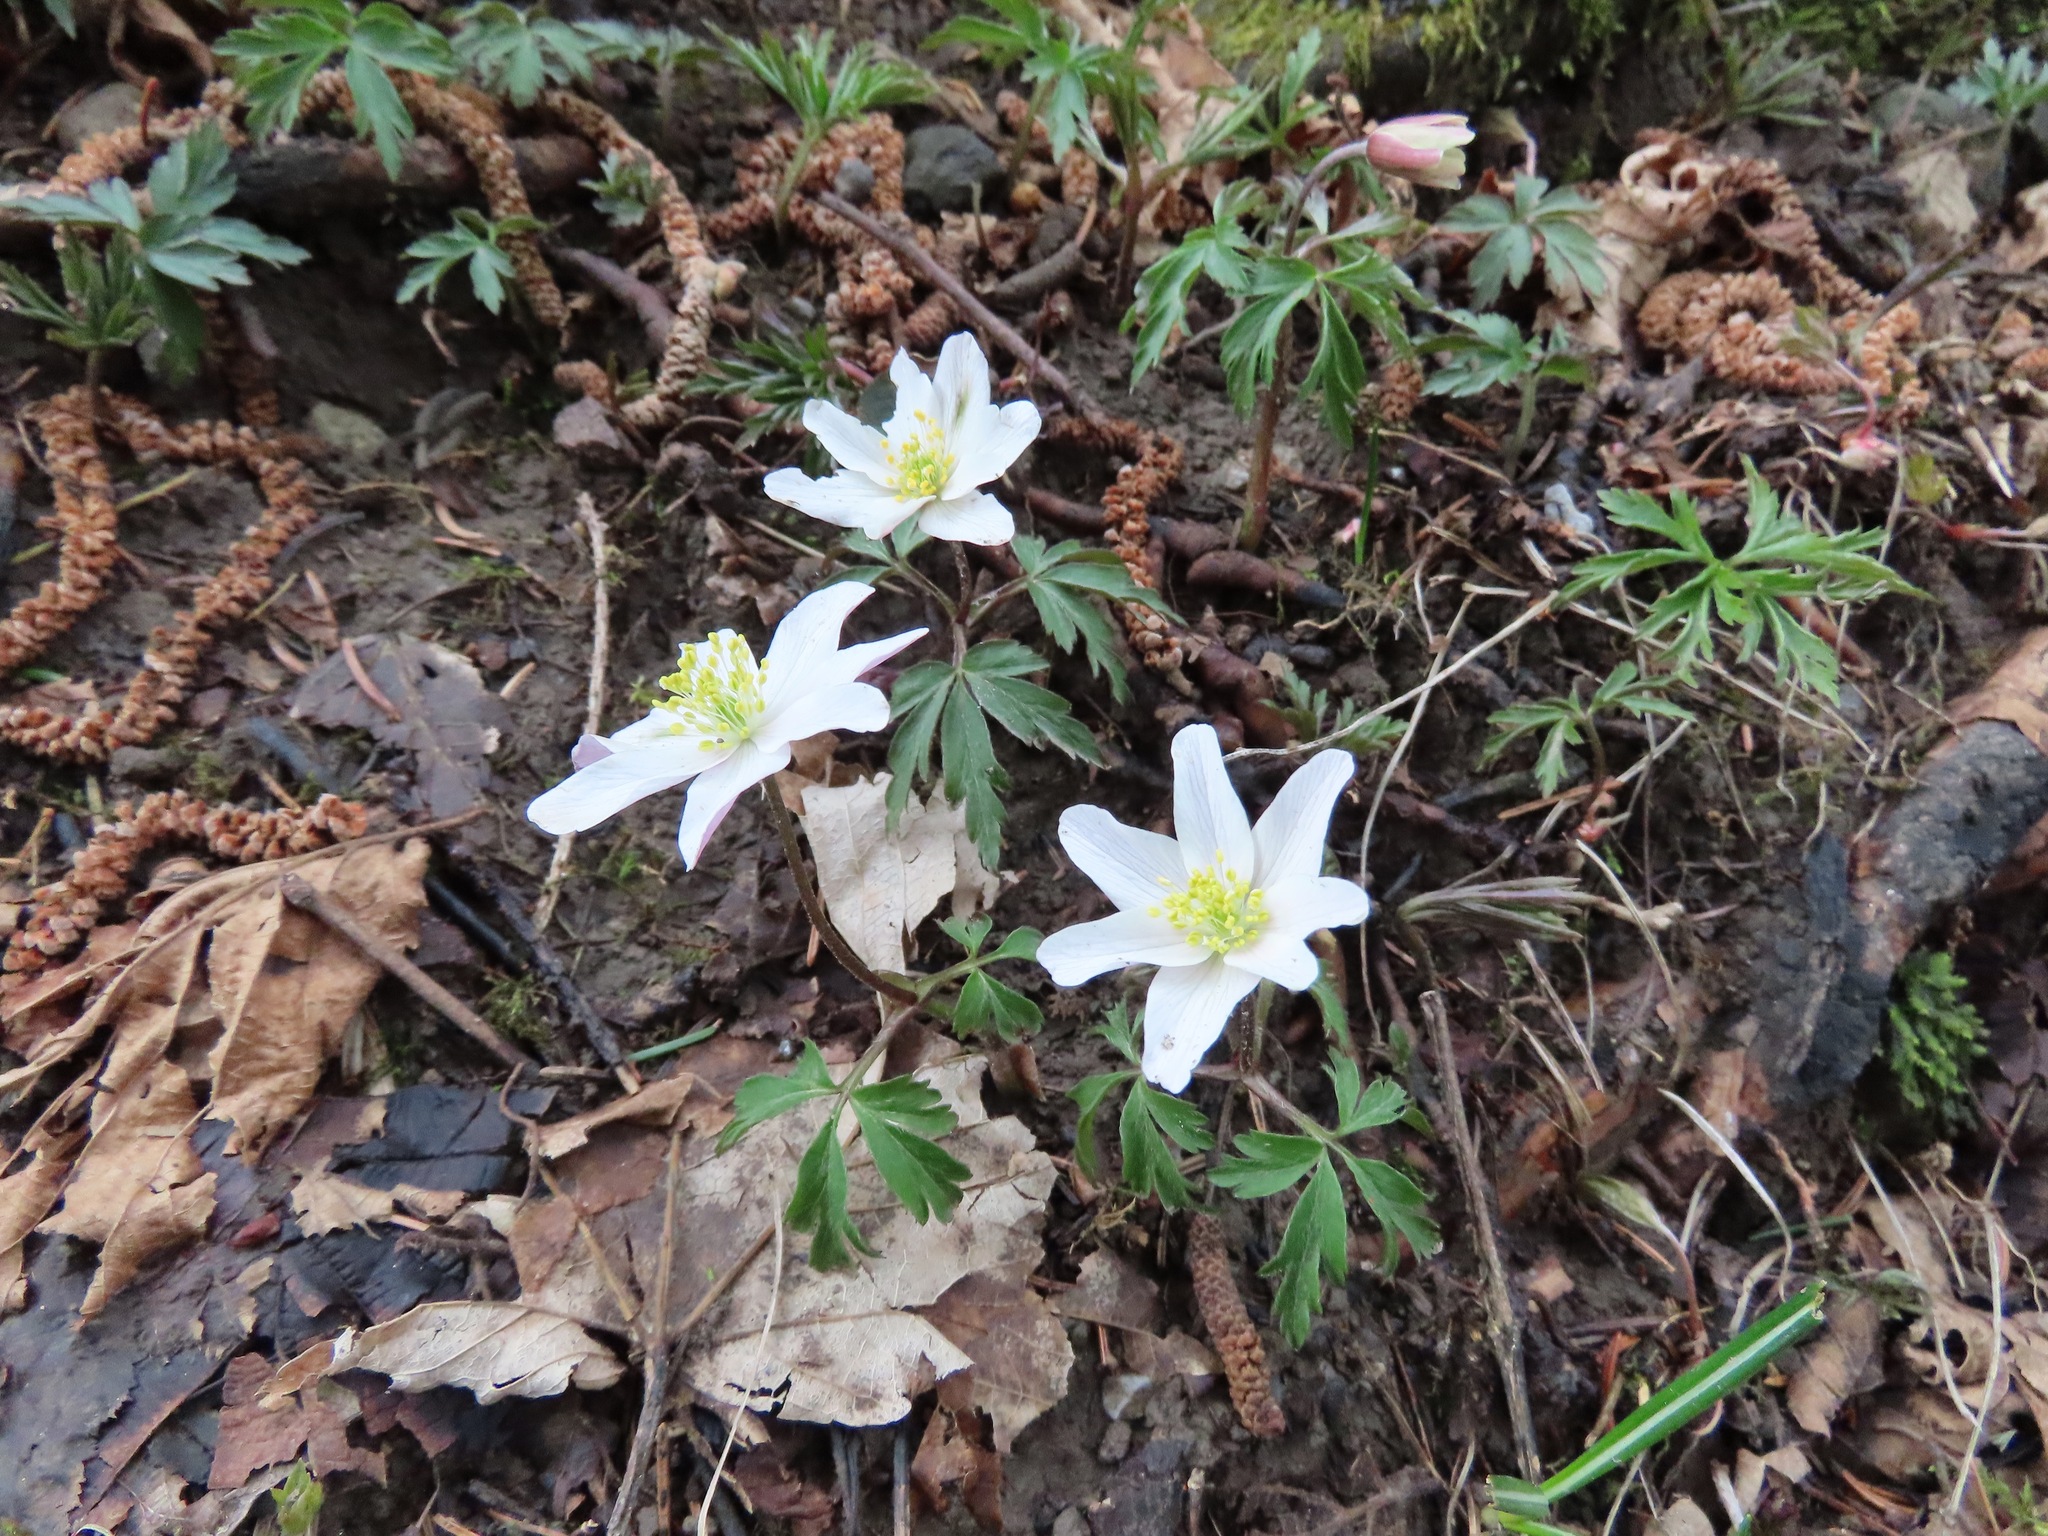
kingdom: Plantae
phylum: Tracheophyta
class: Magnoliopsida
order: Ranunculales
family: Ranunculaceae
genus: Anemone
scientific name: Anemone nemorosa
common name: Wood anemone
